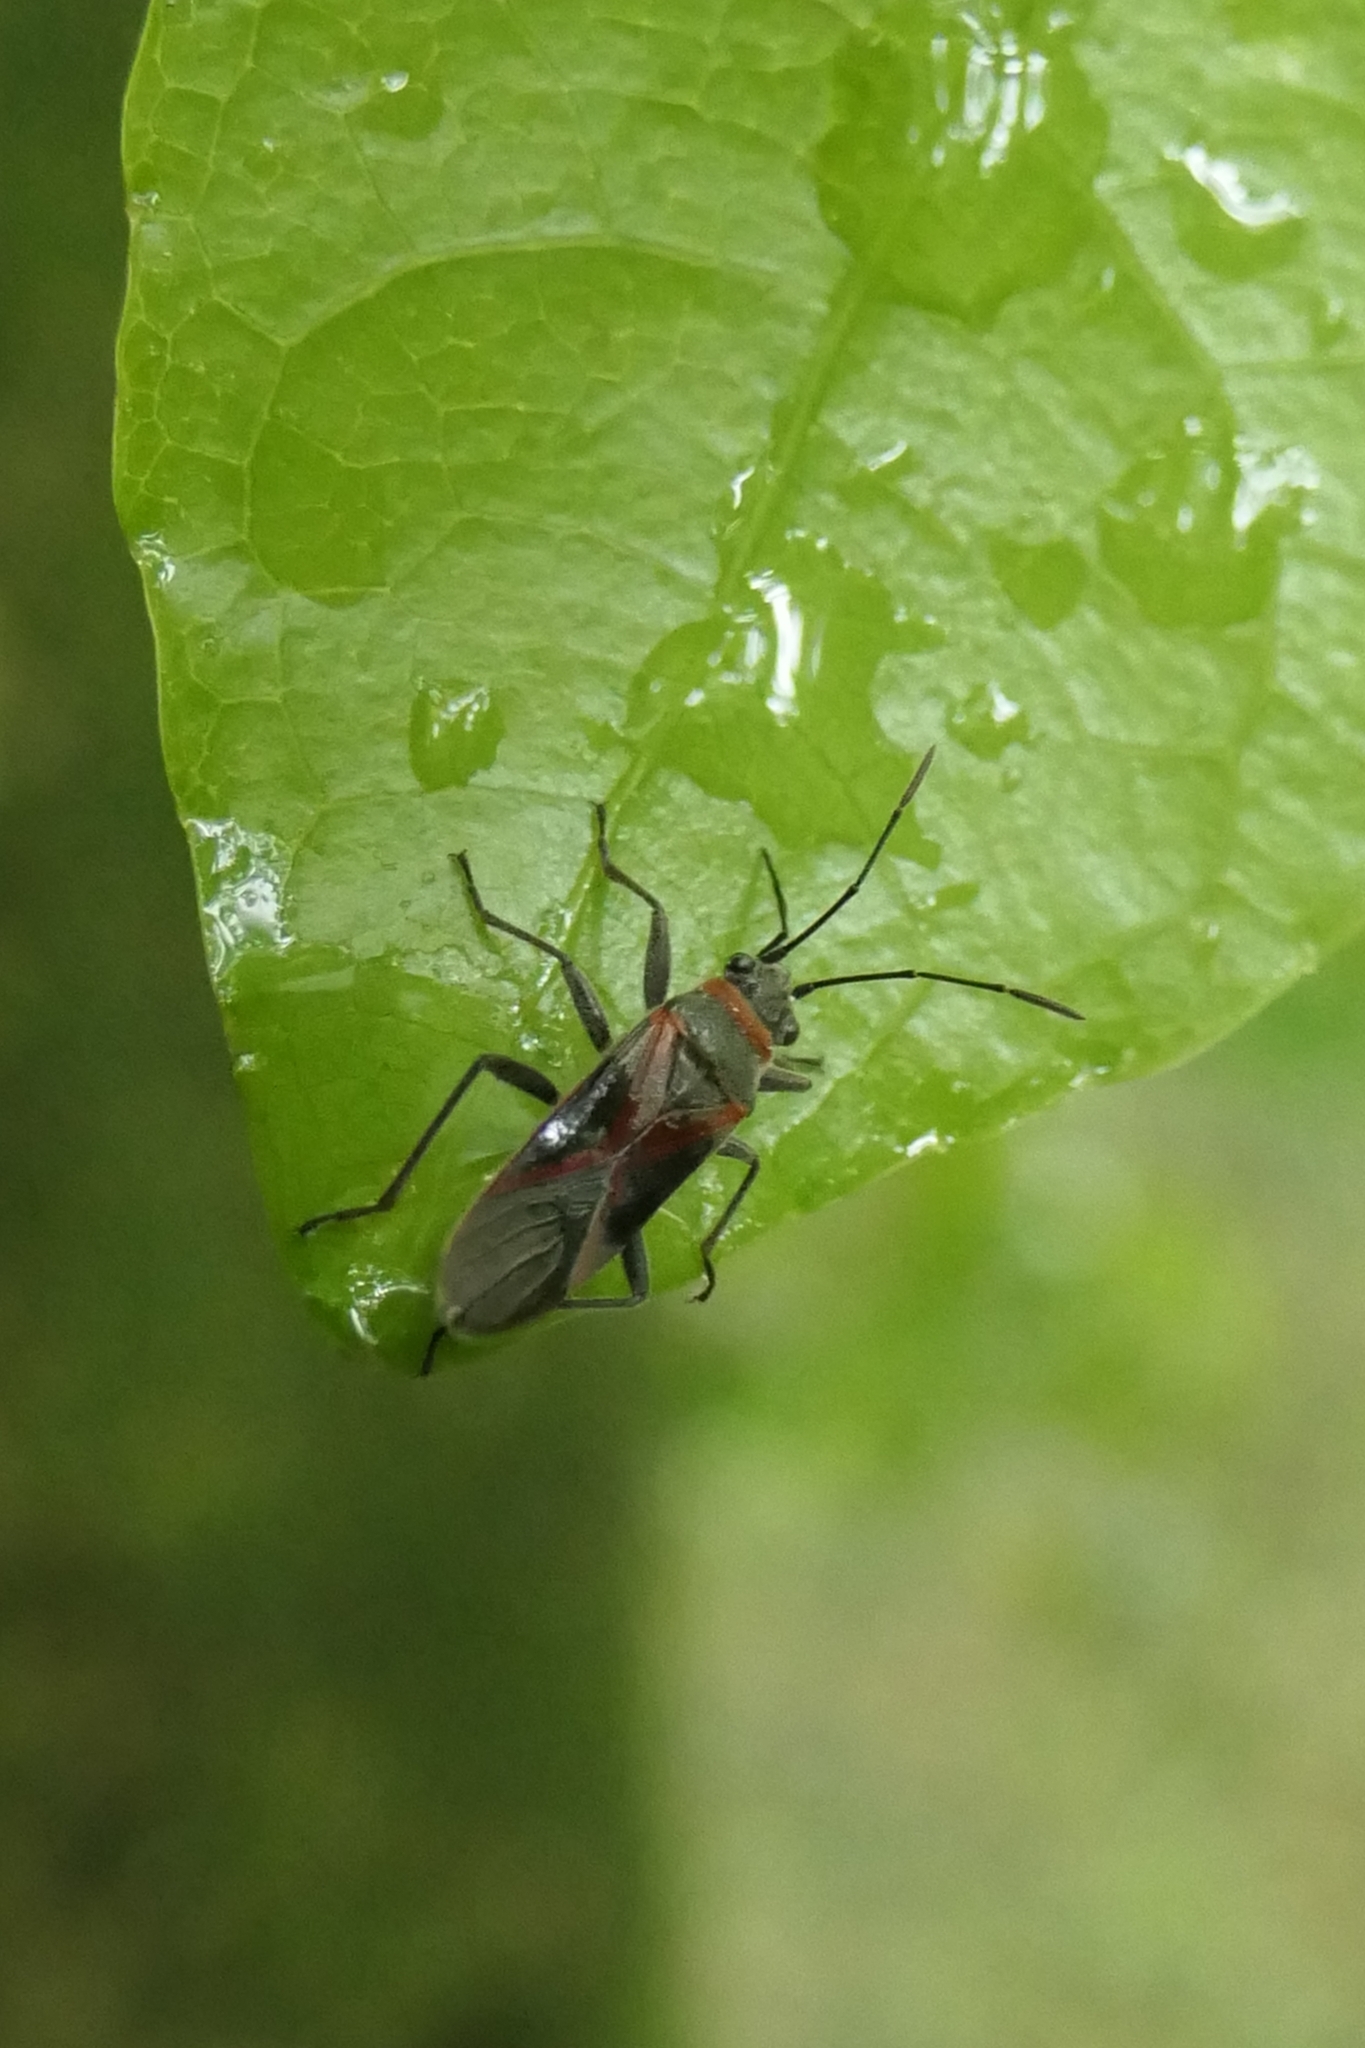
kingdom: Animalia
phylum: Arthropoda
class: Insecta
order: Hemiptera
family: Lygaeidae
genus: Arocatus
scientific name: Arocatus rusticus
